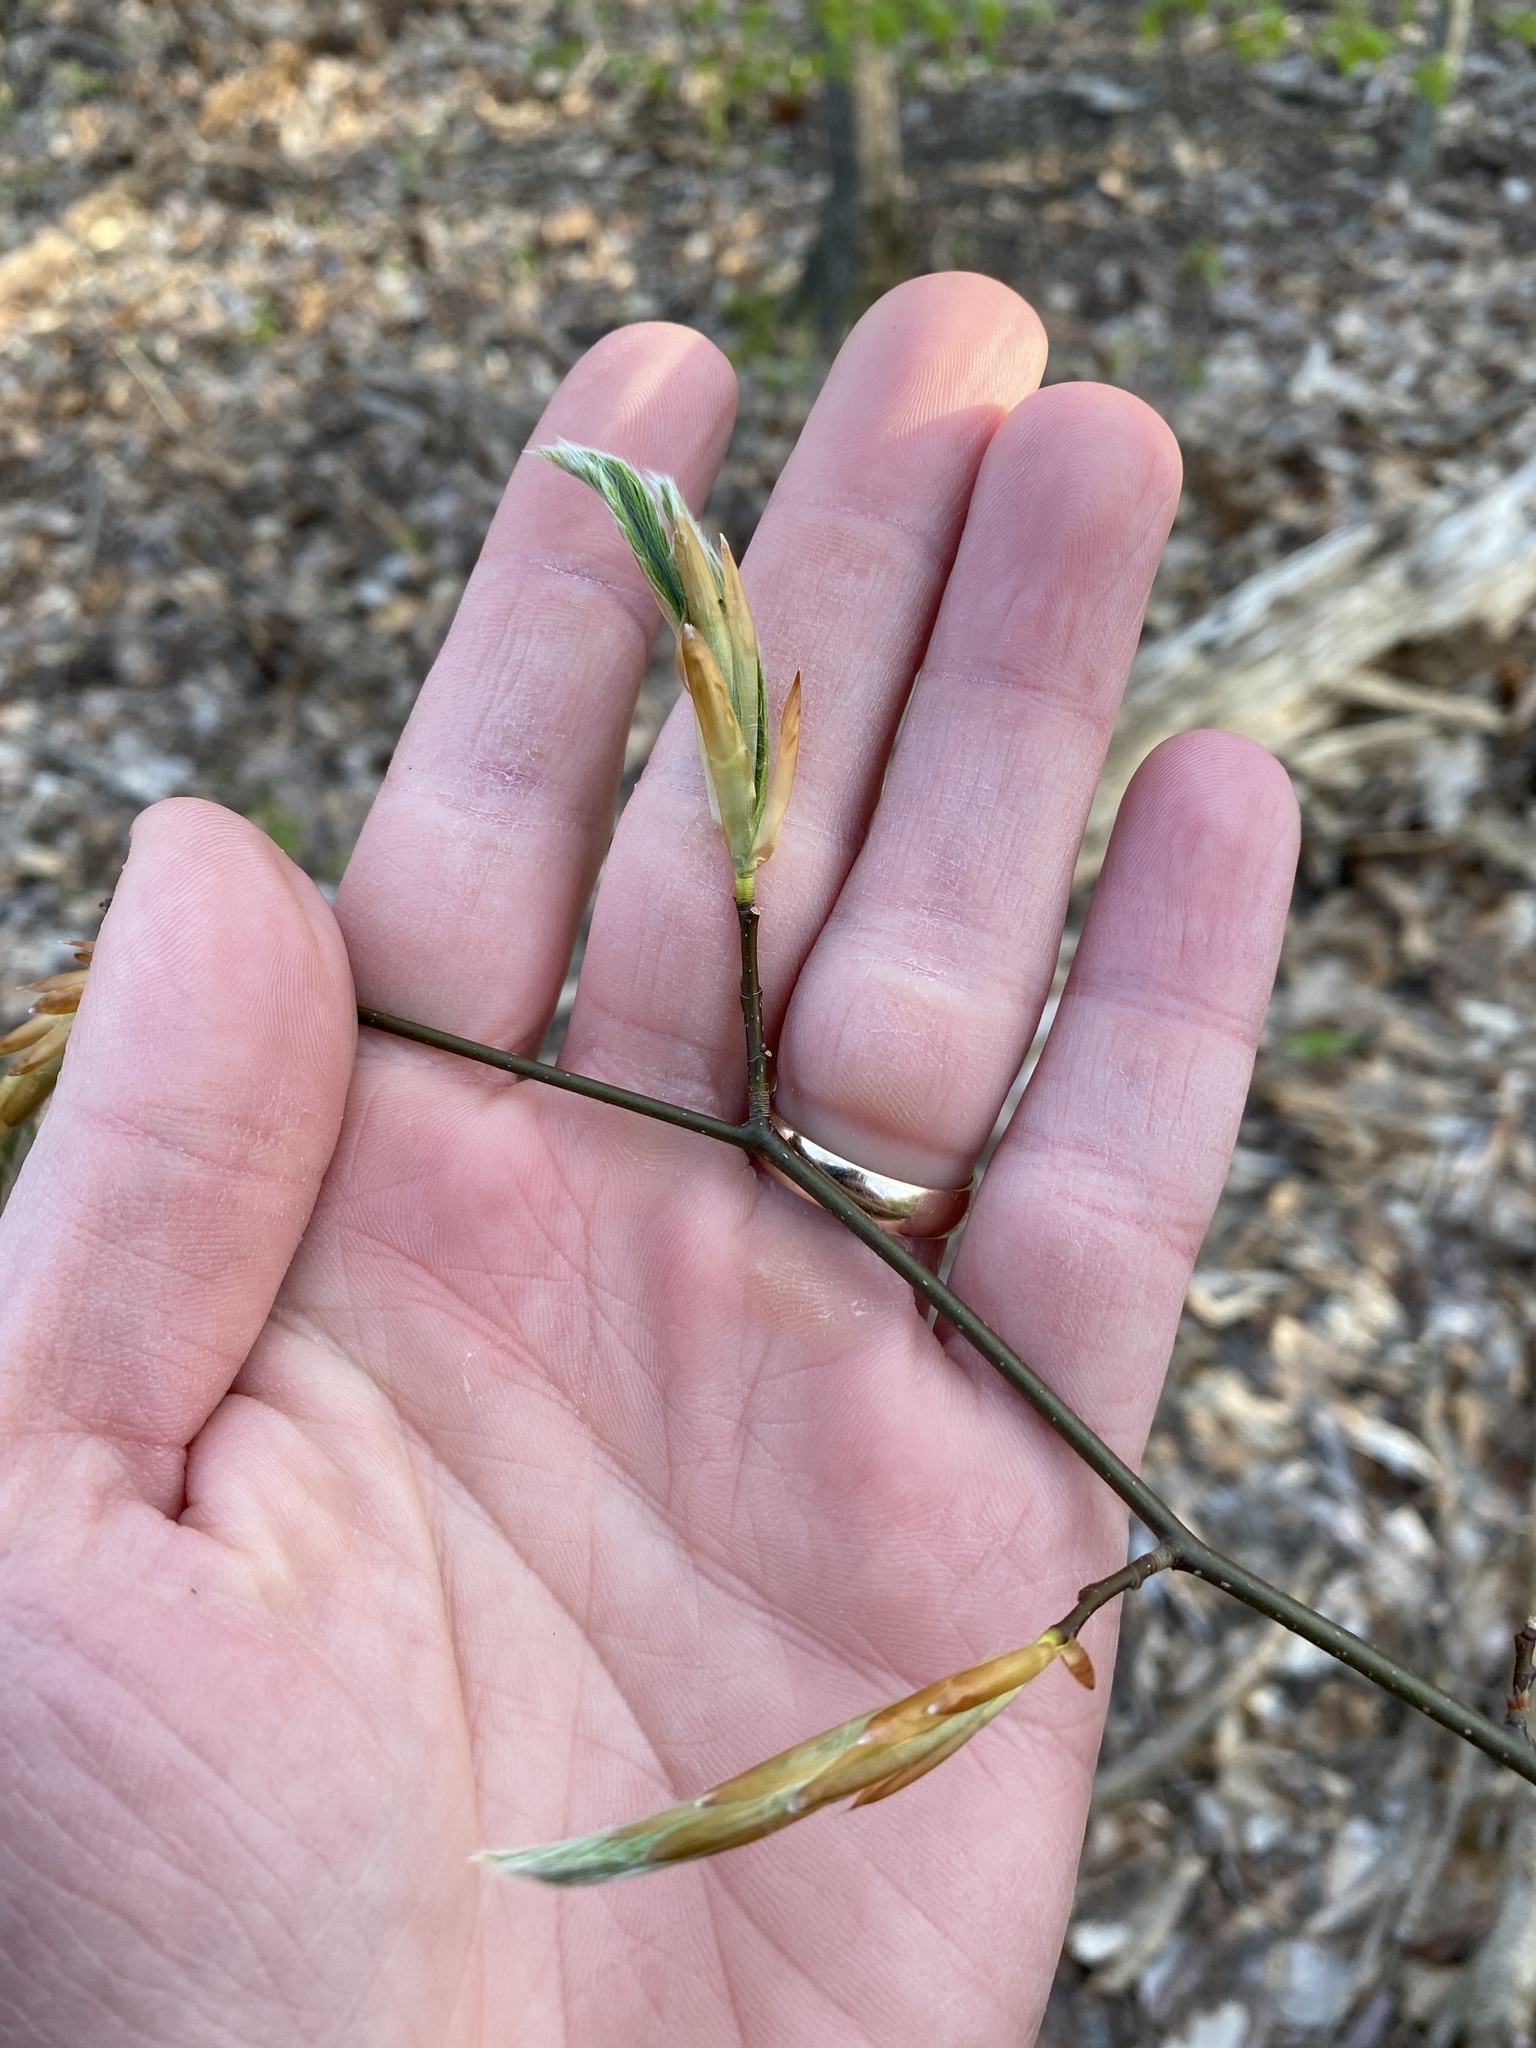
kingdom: Plantae
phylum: Tracheophyta
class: Magnoliopsida
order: Fagales
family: Fagaceae
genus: Fagus
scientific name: Fagus grandifolia
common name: American beech
